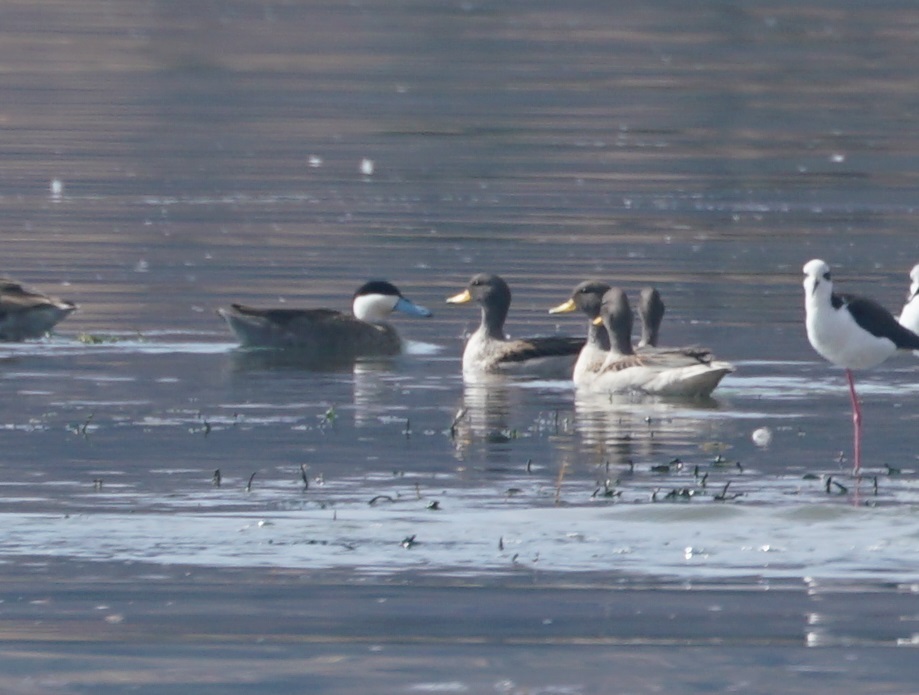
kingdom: Animalia
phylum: Chordata
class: Aves
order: Anseriformes
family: Anatidae
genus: Spatula
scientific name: Spatula puna
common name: Puna teal
